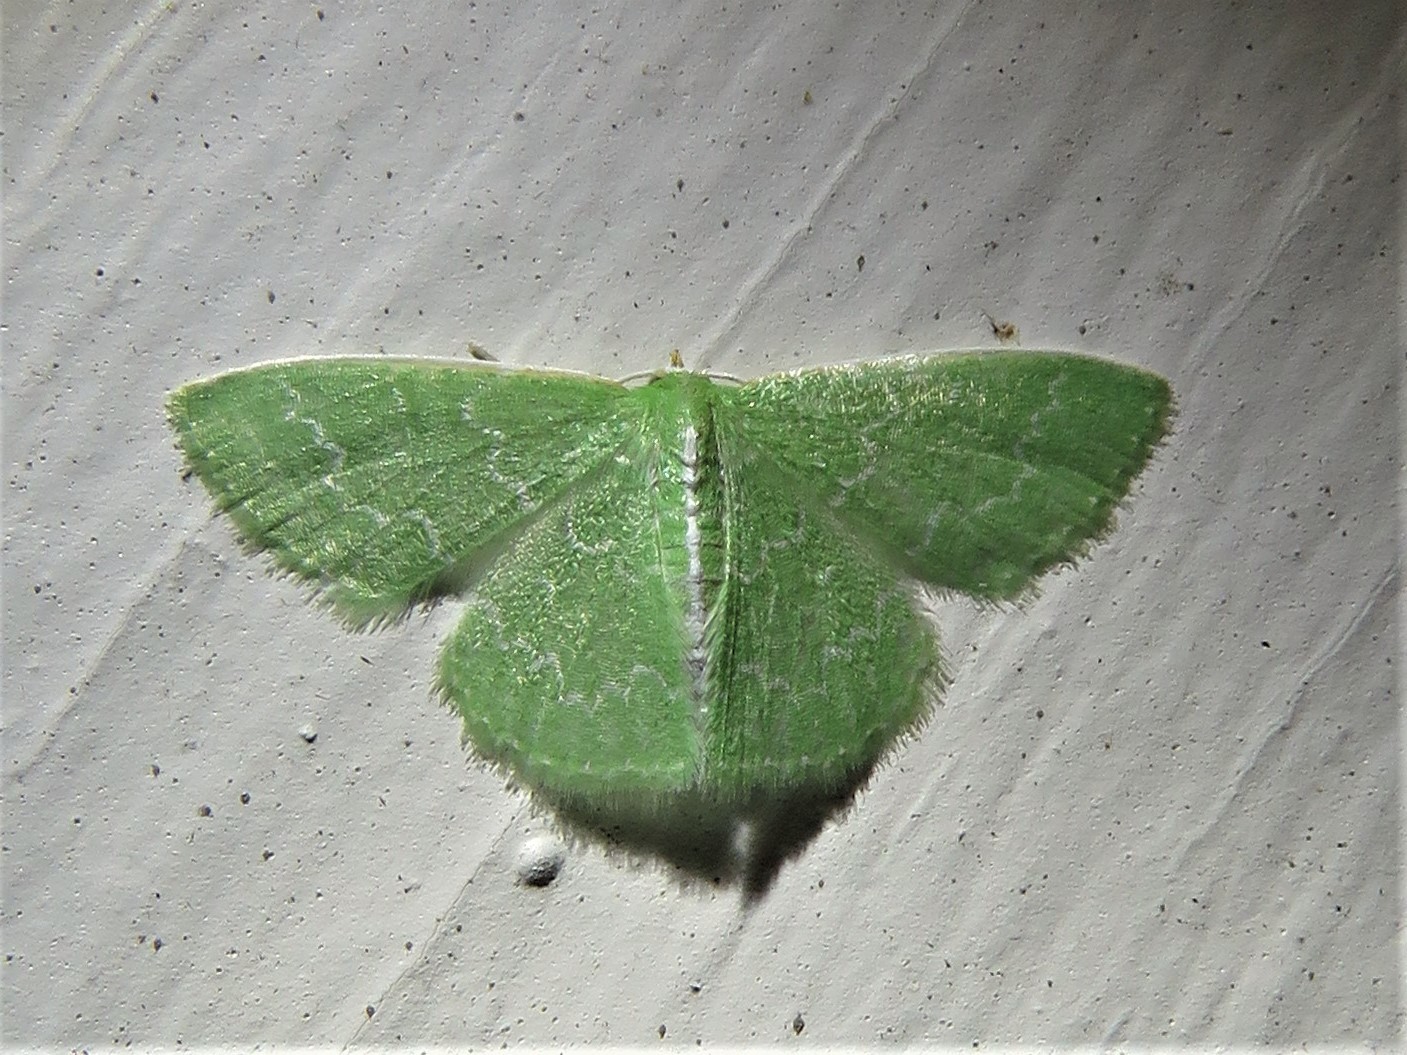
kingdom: Animalia
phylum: Arthropoda
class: Insecta
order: Lepidoptera
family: Geometridae
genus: Synchlora
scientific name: Synchlora frondaria
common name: Southern emerald
